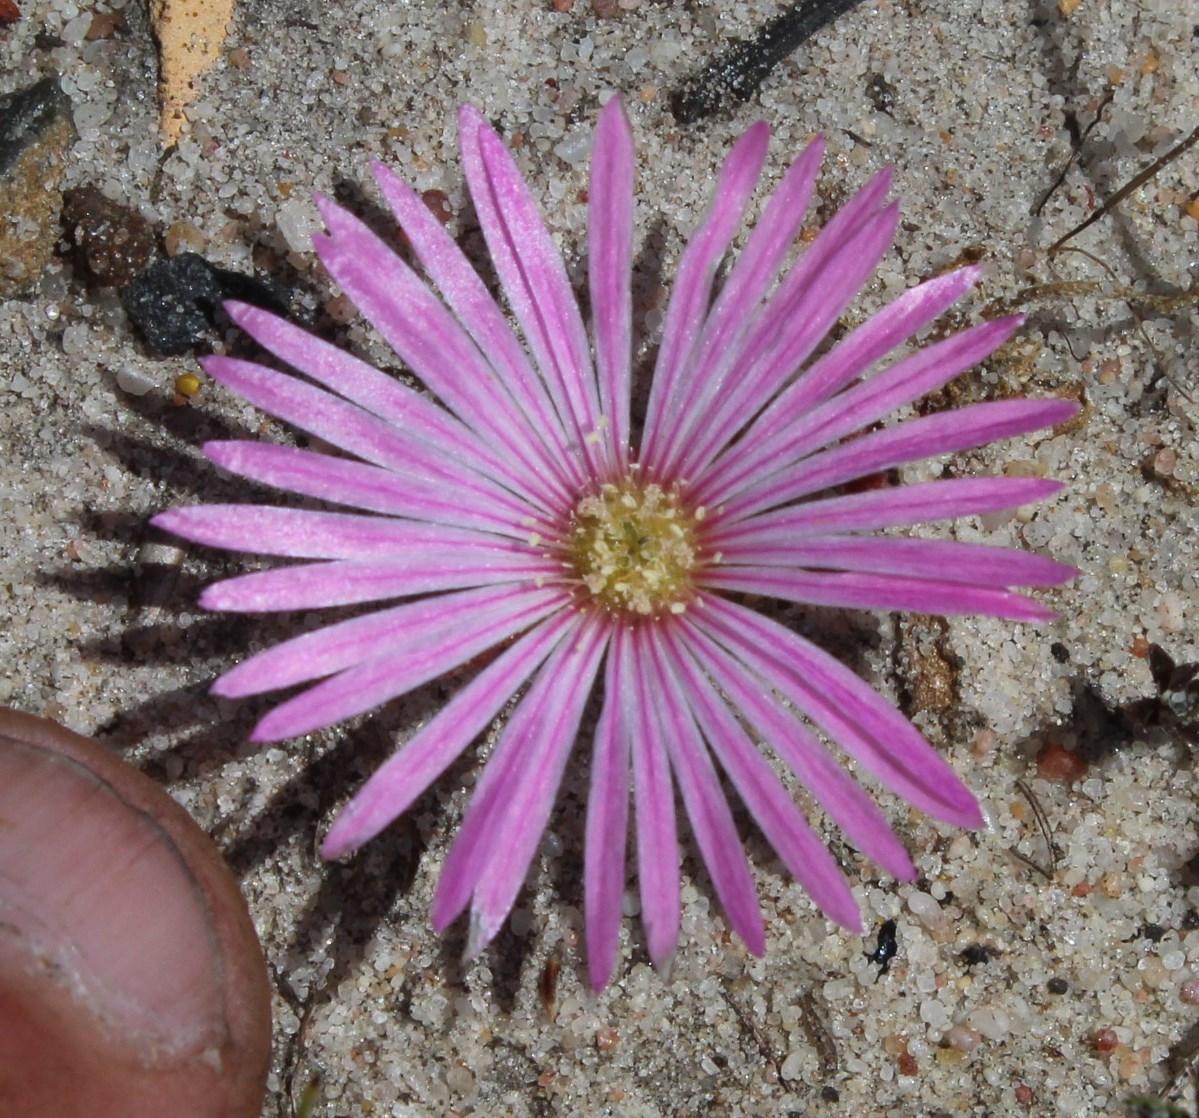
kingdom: Plantae
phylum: Tracheophyta
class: Magnoliopsida
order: Caryophyllales
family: Aizoaceae
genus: Cleretum
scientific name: Cleretum bellidiforme
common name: Livingstone daisy
